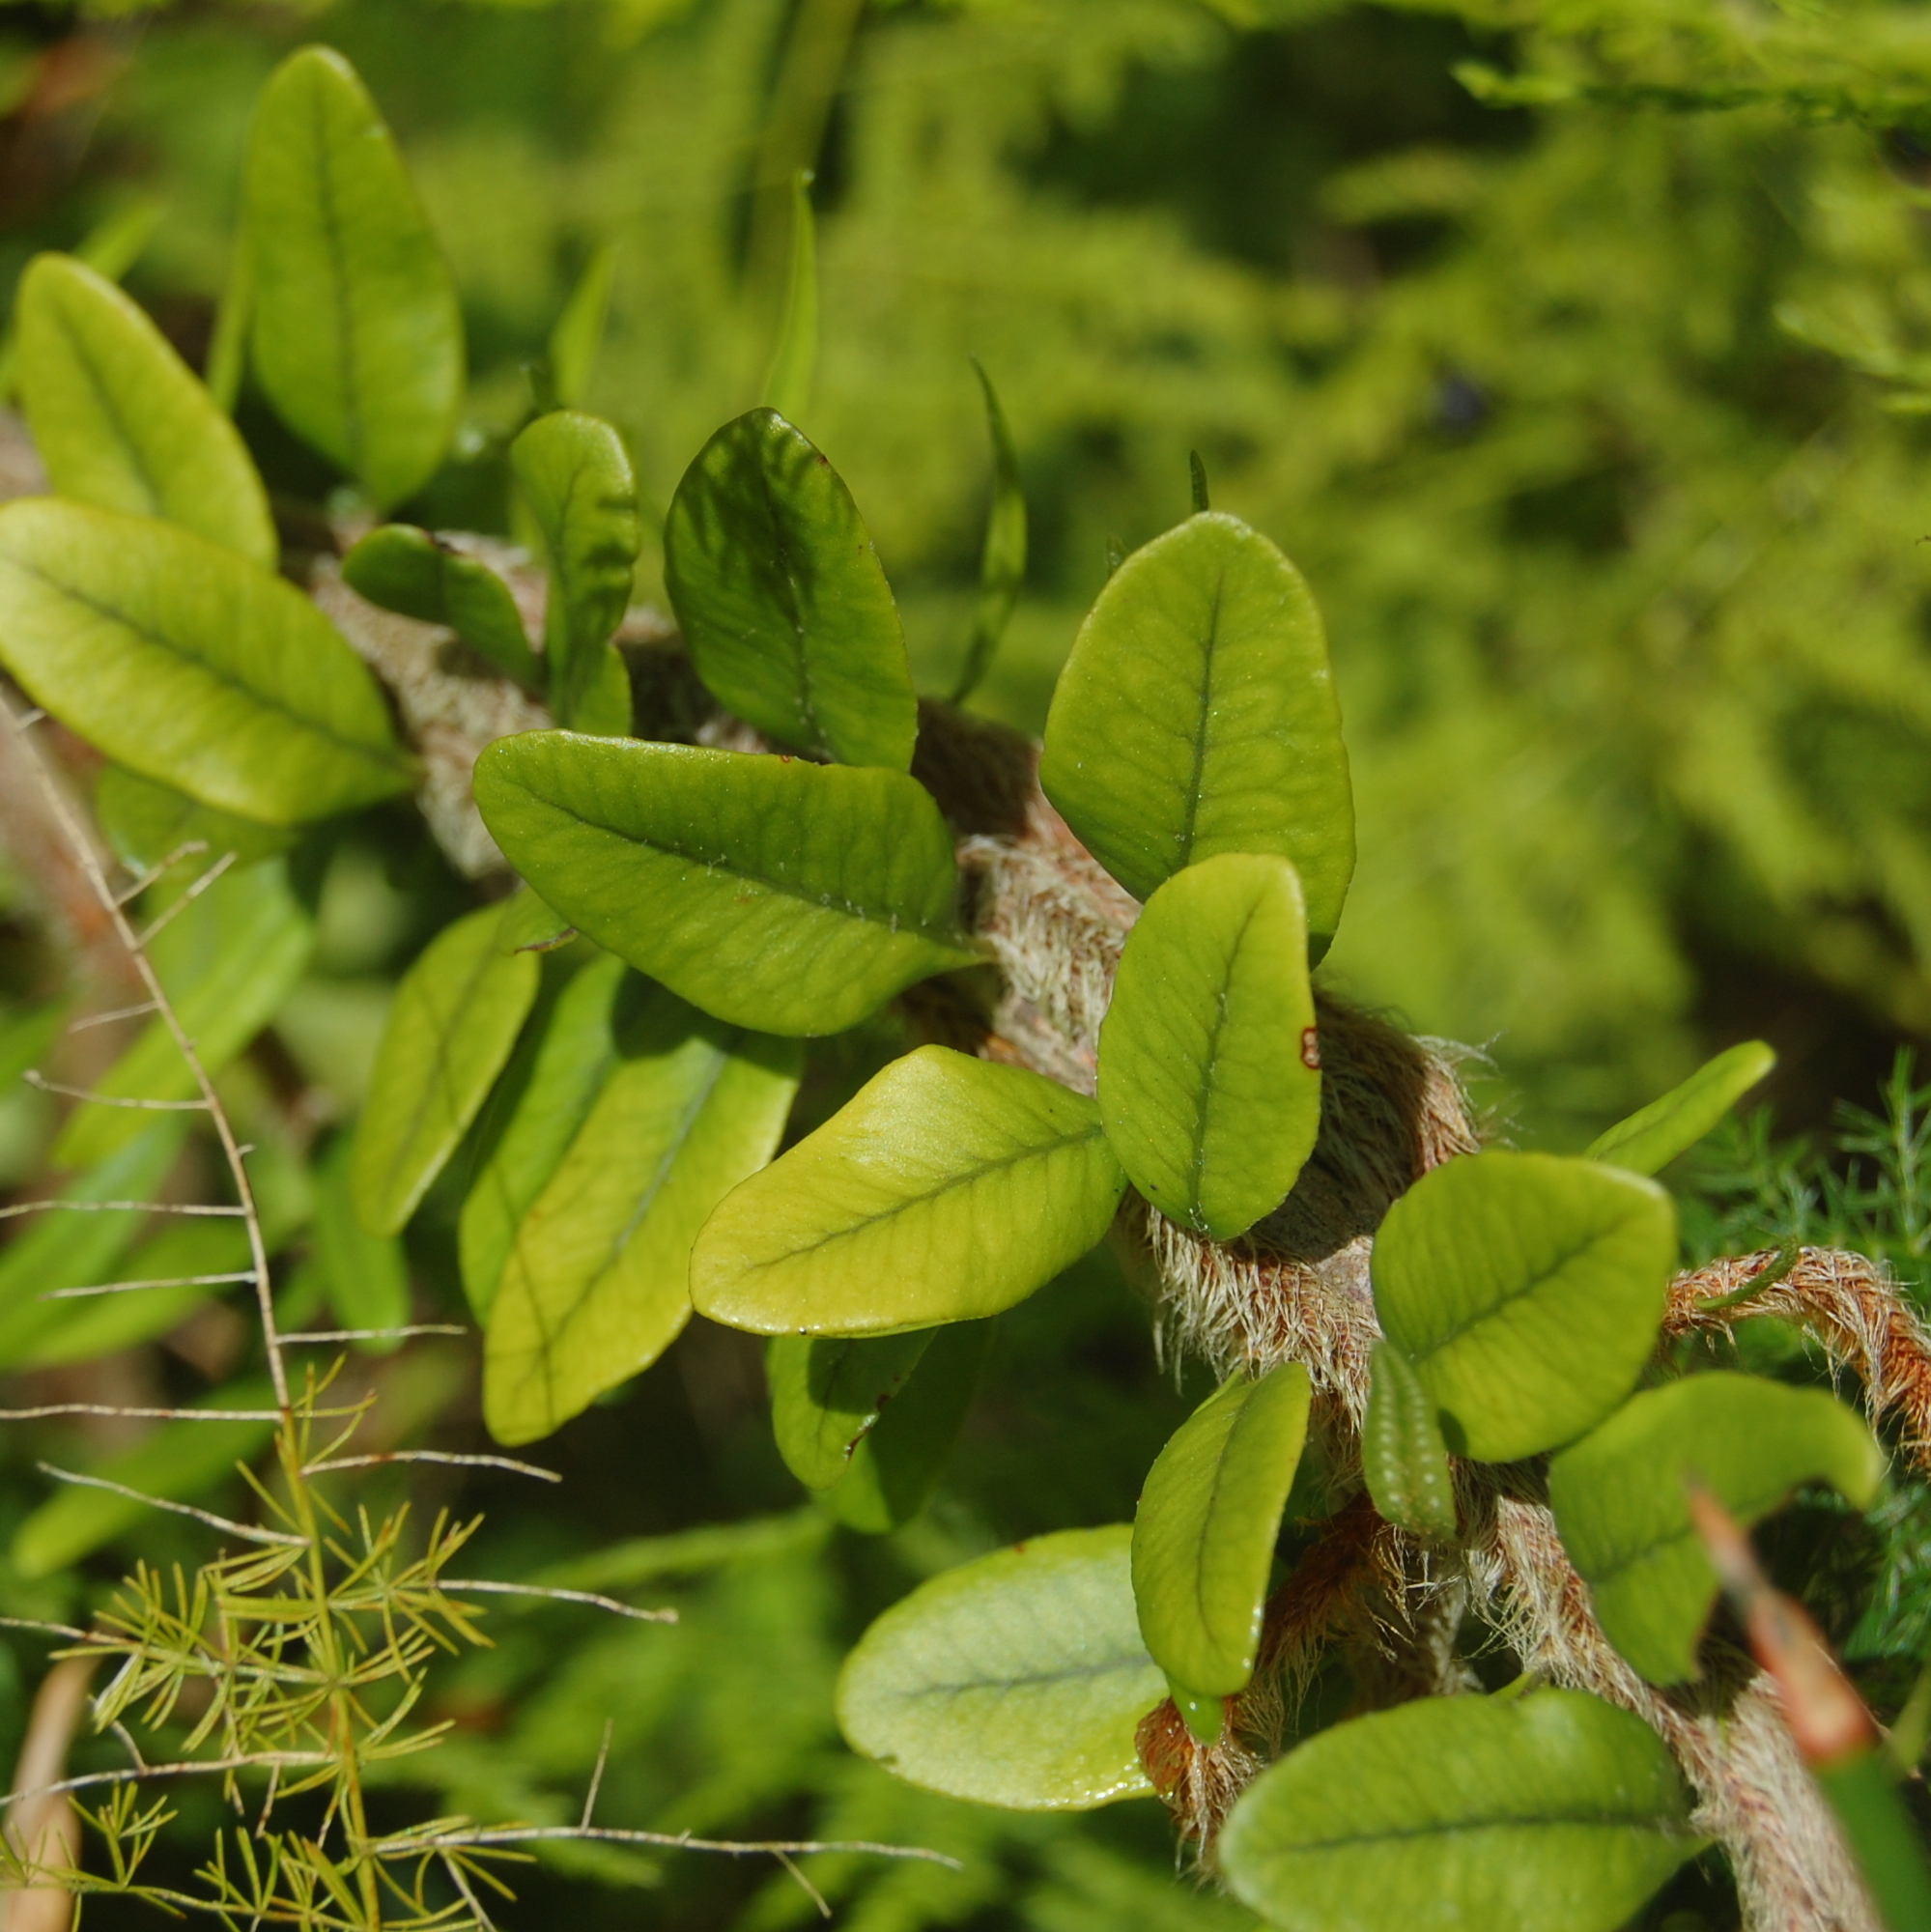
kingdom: Plantae
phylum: Tracheophyta
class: Polypodiopsida
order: Polypodiales
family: Polypodiaceae
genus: Microgramma
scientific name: Microgramma vaccinifolia
